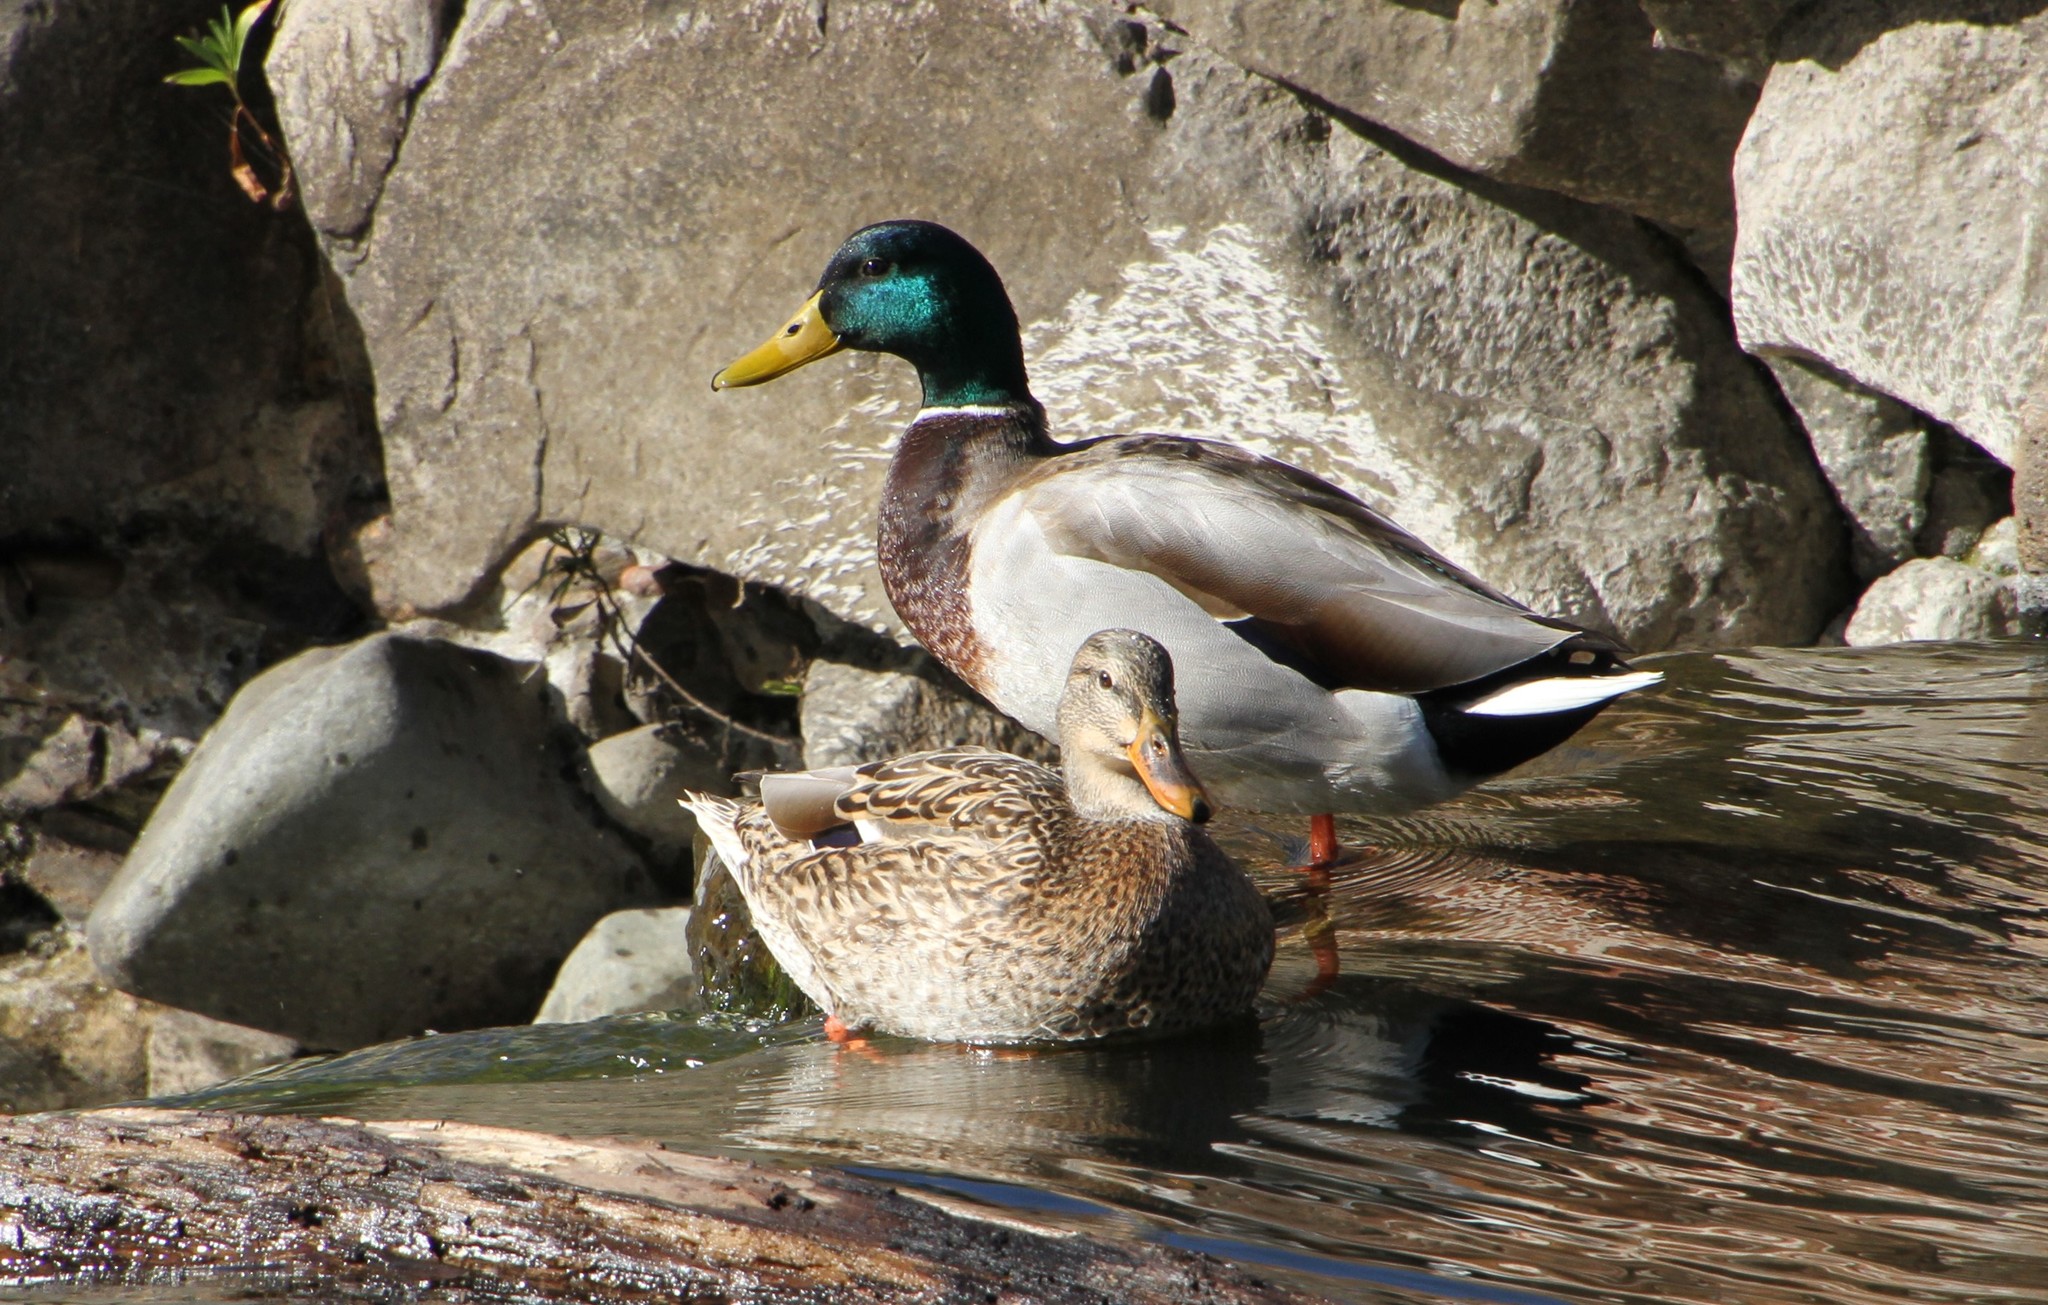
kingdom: Animalia
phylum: Chordata
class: Aves
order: Anseriformes
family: Anatidae
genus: Anas
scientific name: Anas platyrhynchos
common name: Mallard
